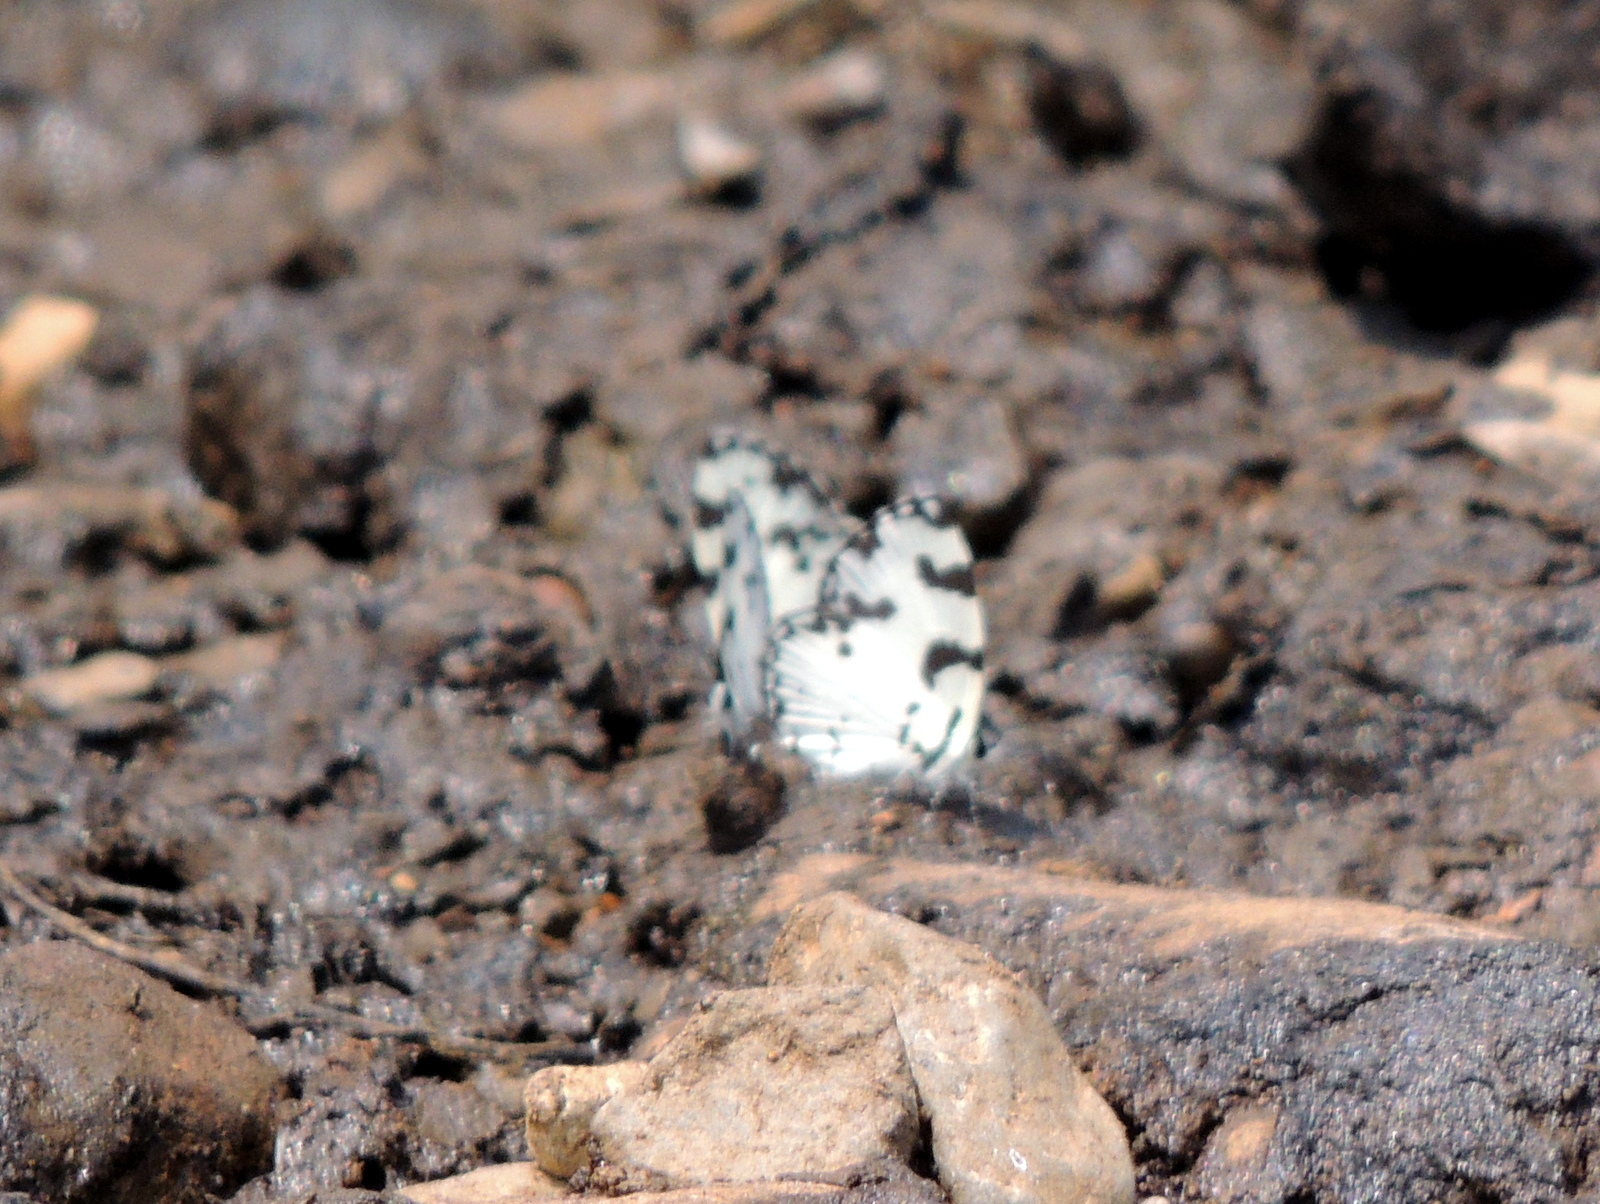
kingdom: Animalia
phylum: Arthropoda
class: Insecta
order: Lepidoptera
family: Lycaenidae
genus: Caleta
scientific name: Caleta decidia
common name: Angled pierrot
